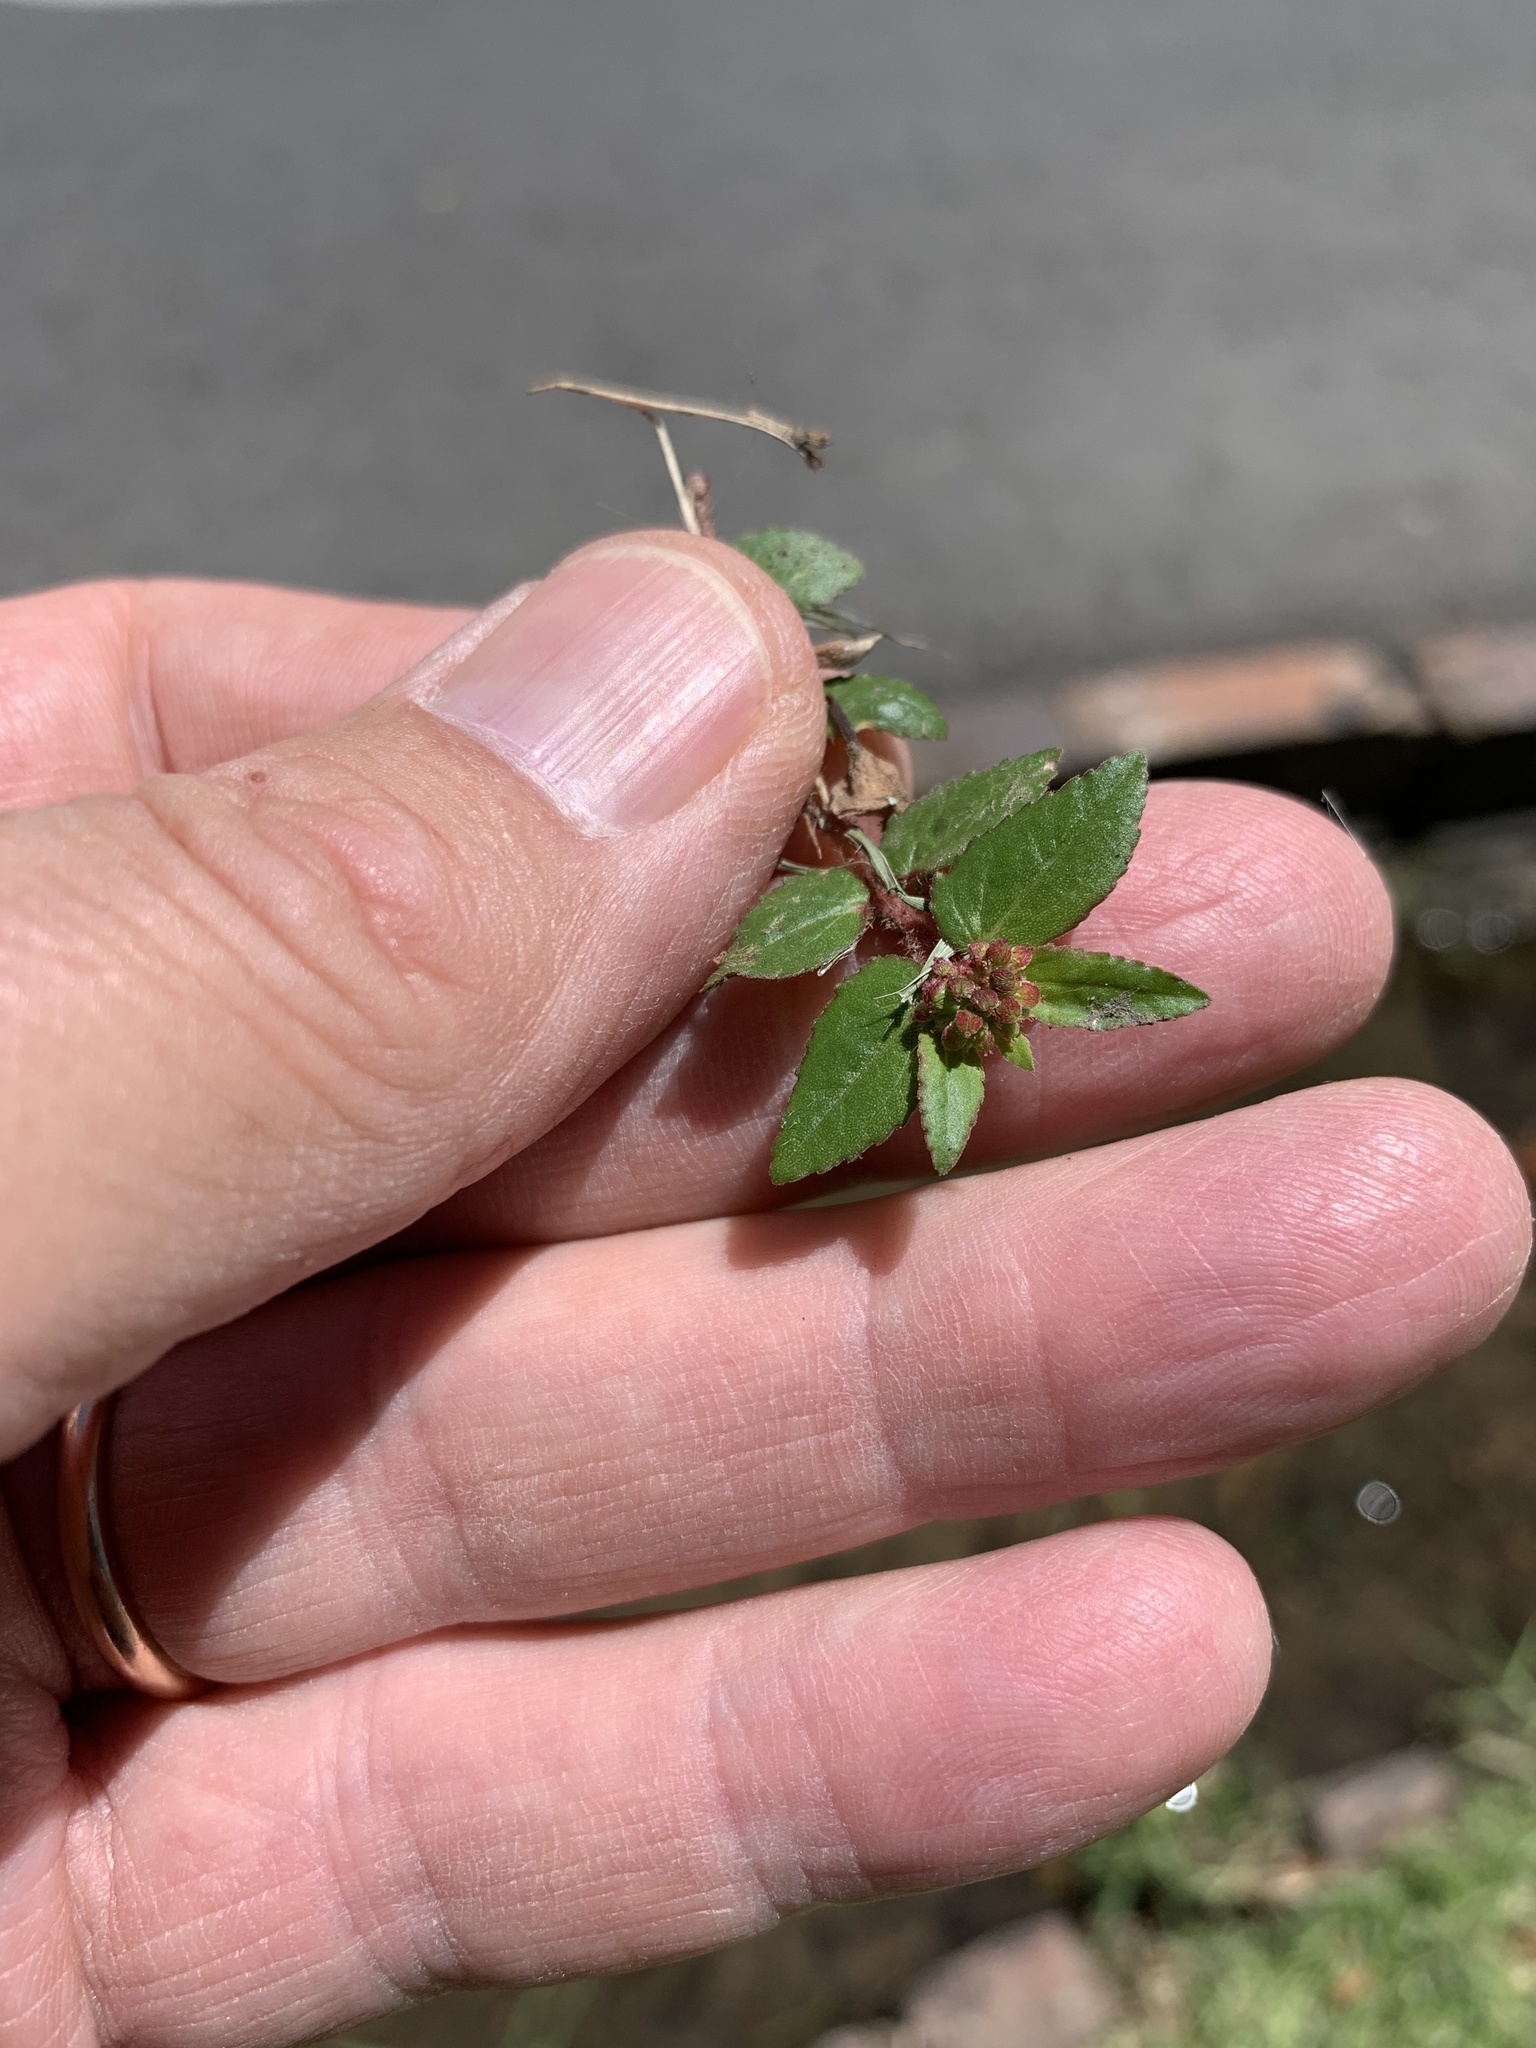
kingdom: Plantae
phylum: Tracheophyta
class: Magnoliopsida
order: Malpighiales
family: Euphorbiaceae
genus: Euphorbia
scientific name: Euphorbia ophthalmica
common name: Florida hammock sandmat
